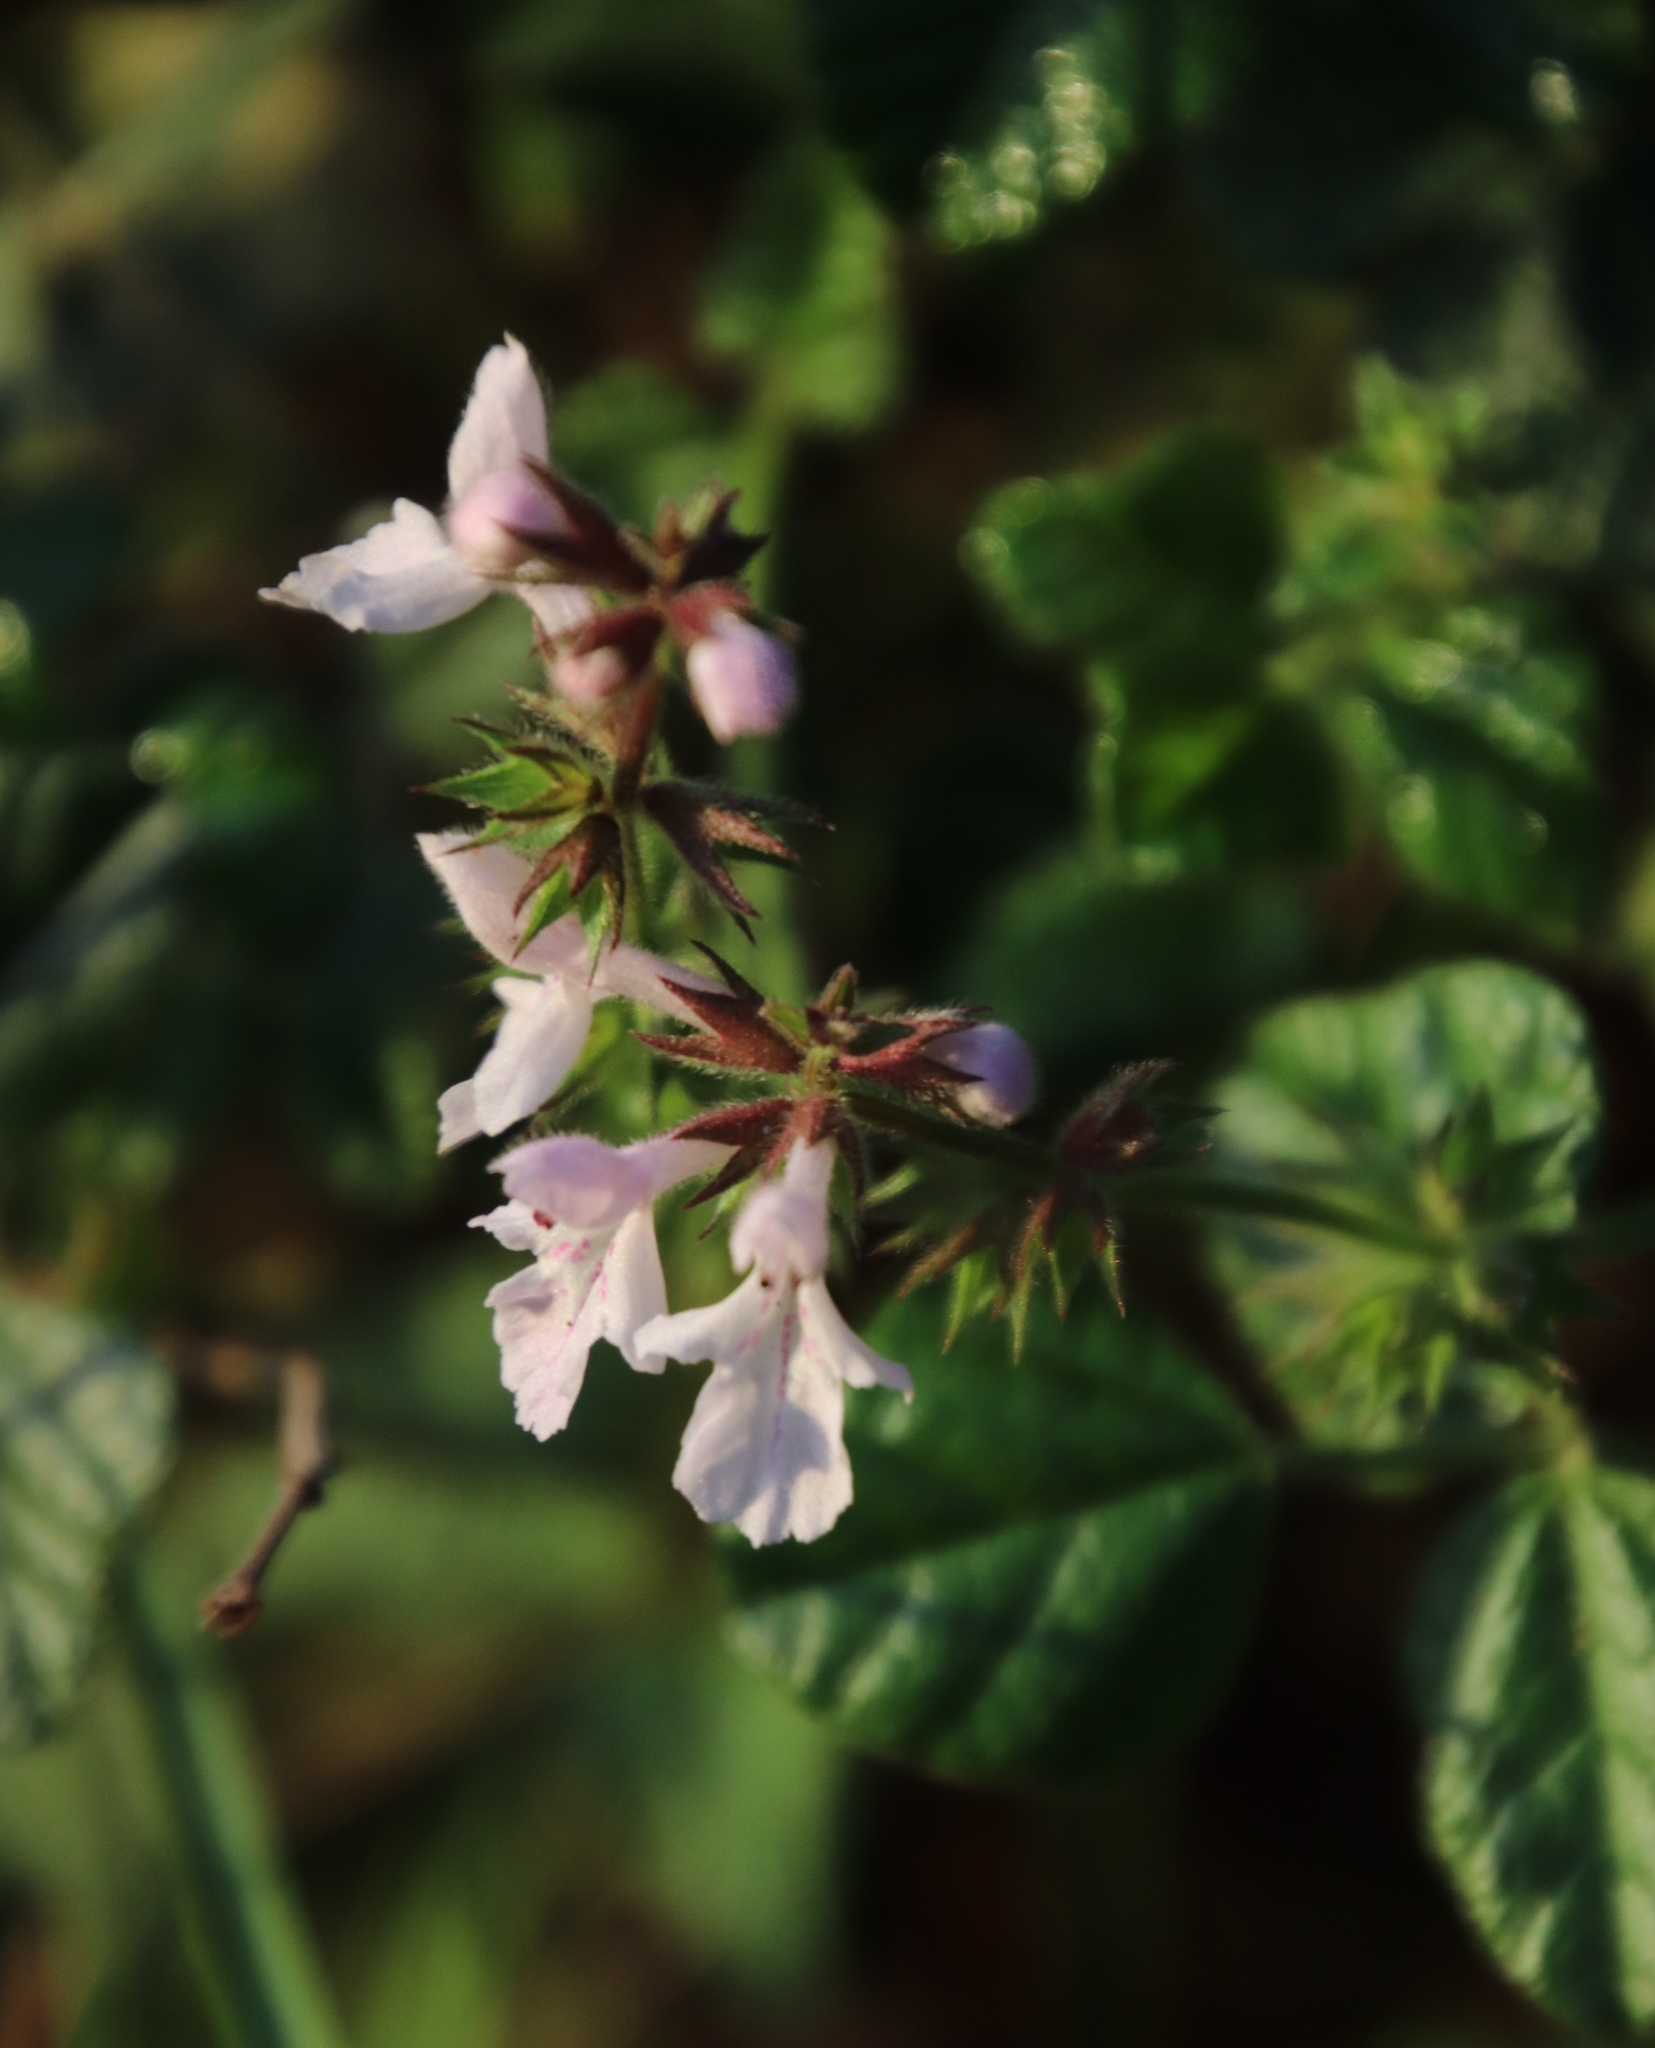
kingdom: Plantae
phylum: Tracheophyta
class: Magnoliopsida
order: Lamiales
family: Lamiaceae
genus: Stachys
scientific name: Stachys aethiopica
